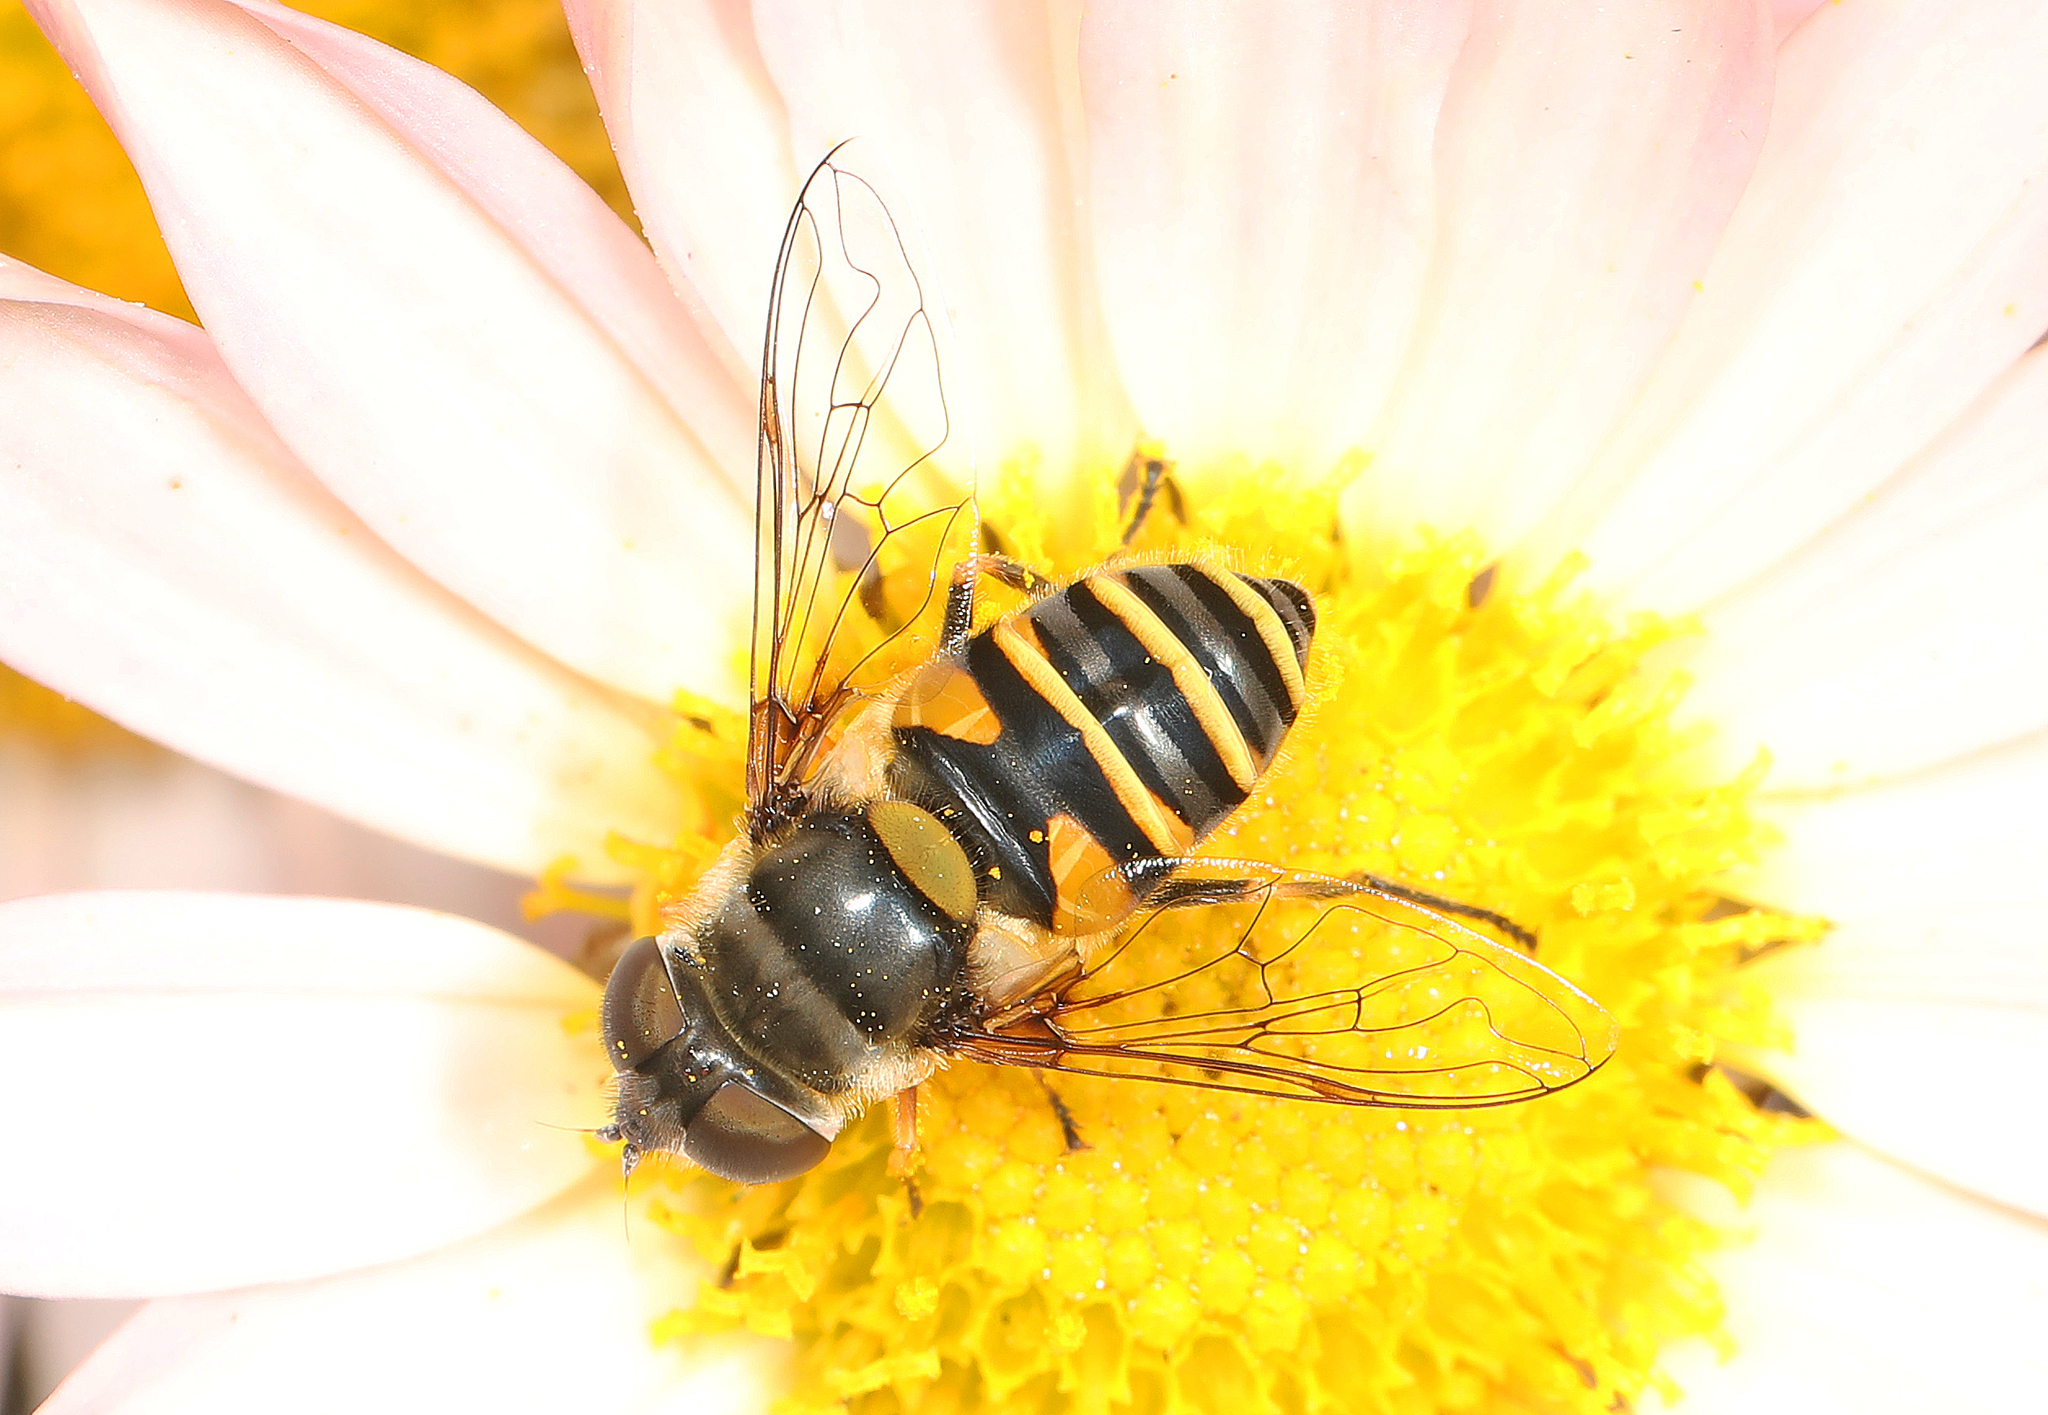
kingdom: Animalia
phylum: Arthropoda
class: Insecta
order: Diptera
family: Syrphidae
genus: Eristalis
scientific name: Eristalis transversa
